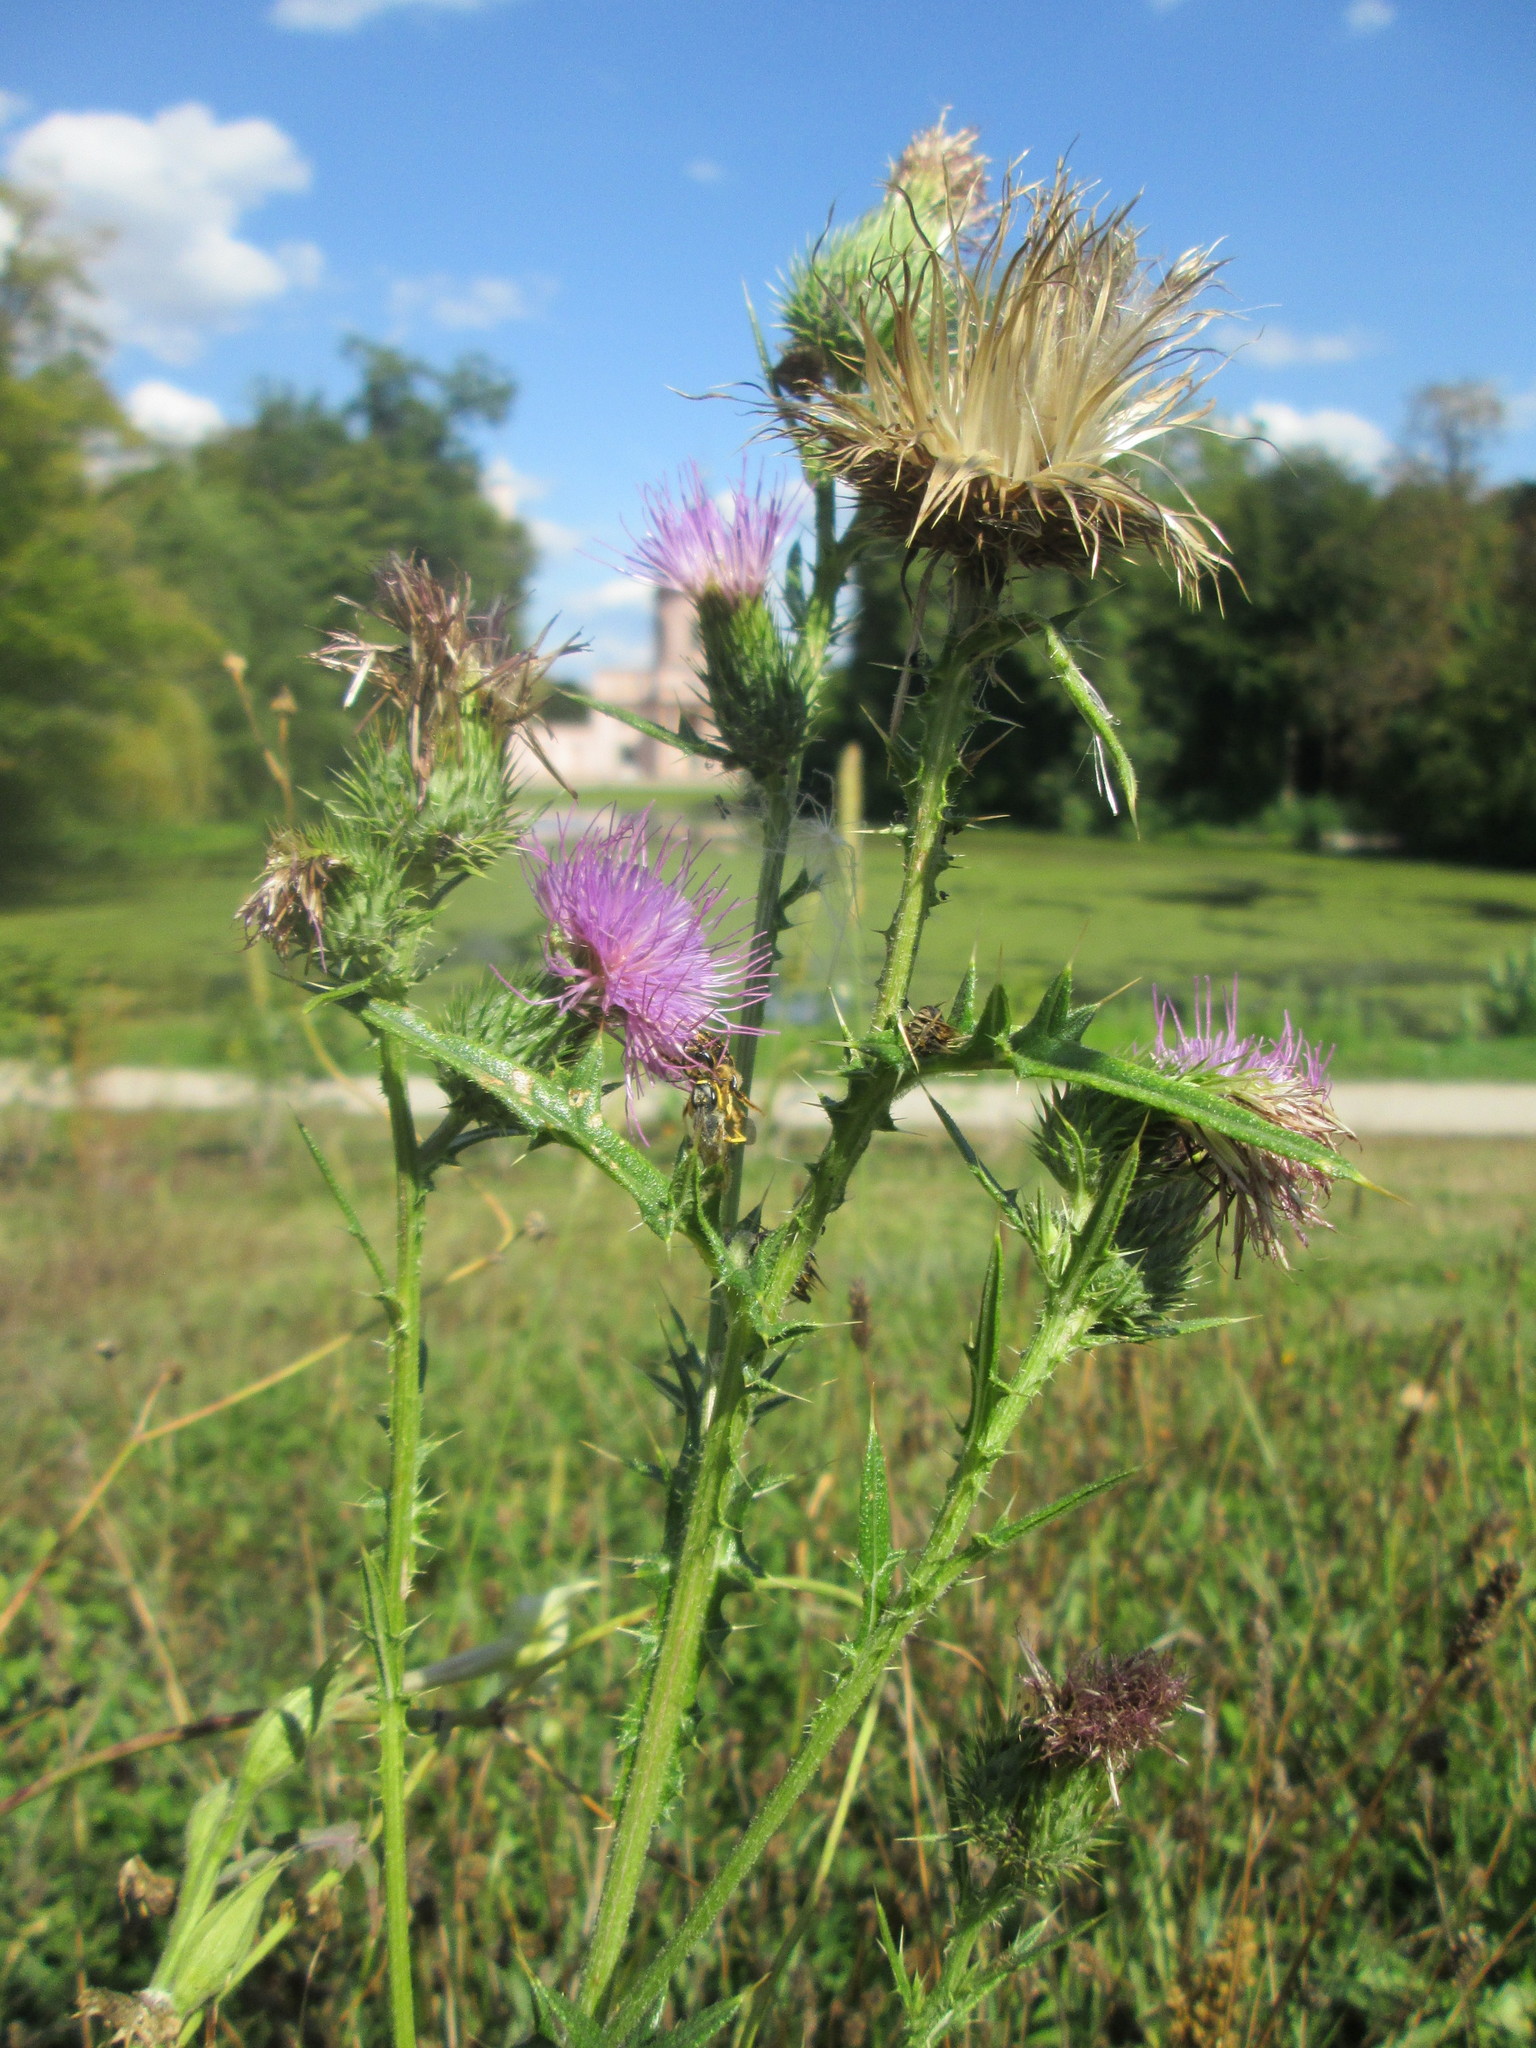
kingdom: Plantae
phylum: Tracheophyta
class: Magnoliopsida
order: Asterales
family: Asteraceae
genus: Cirsium
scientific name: Cirsium vulgare
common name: Bull thistle
